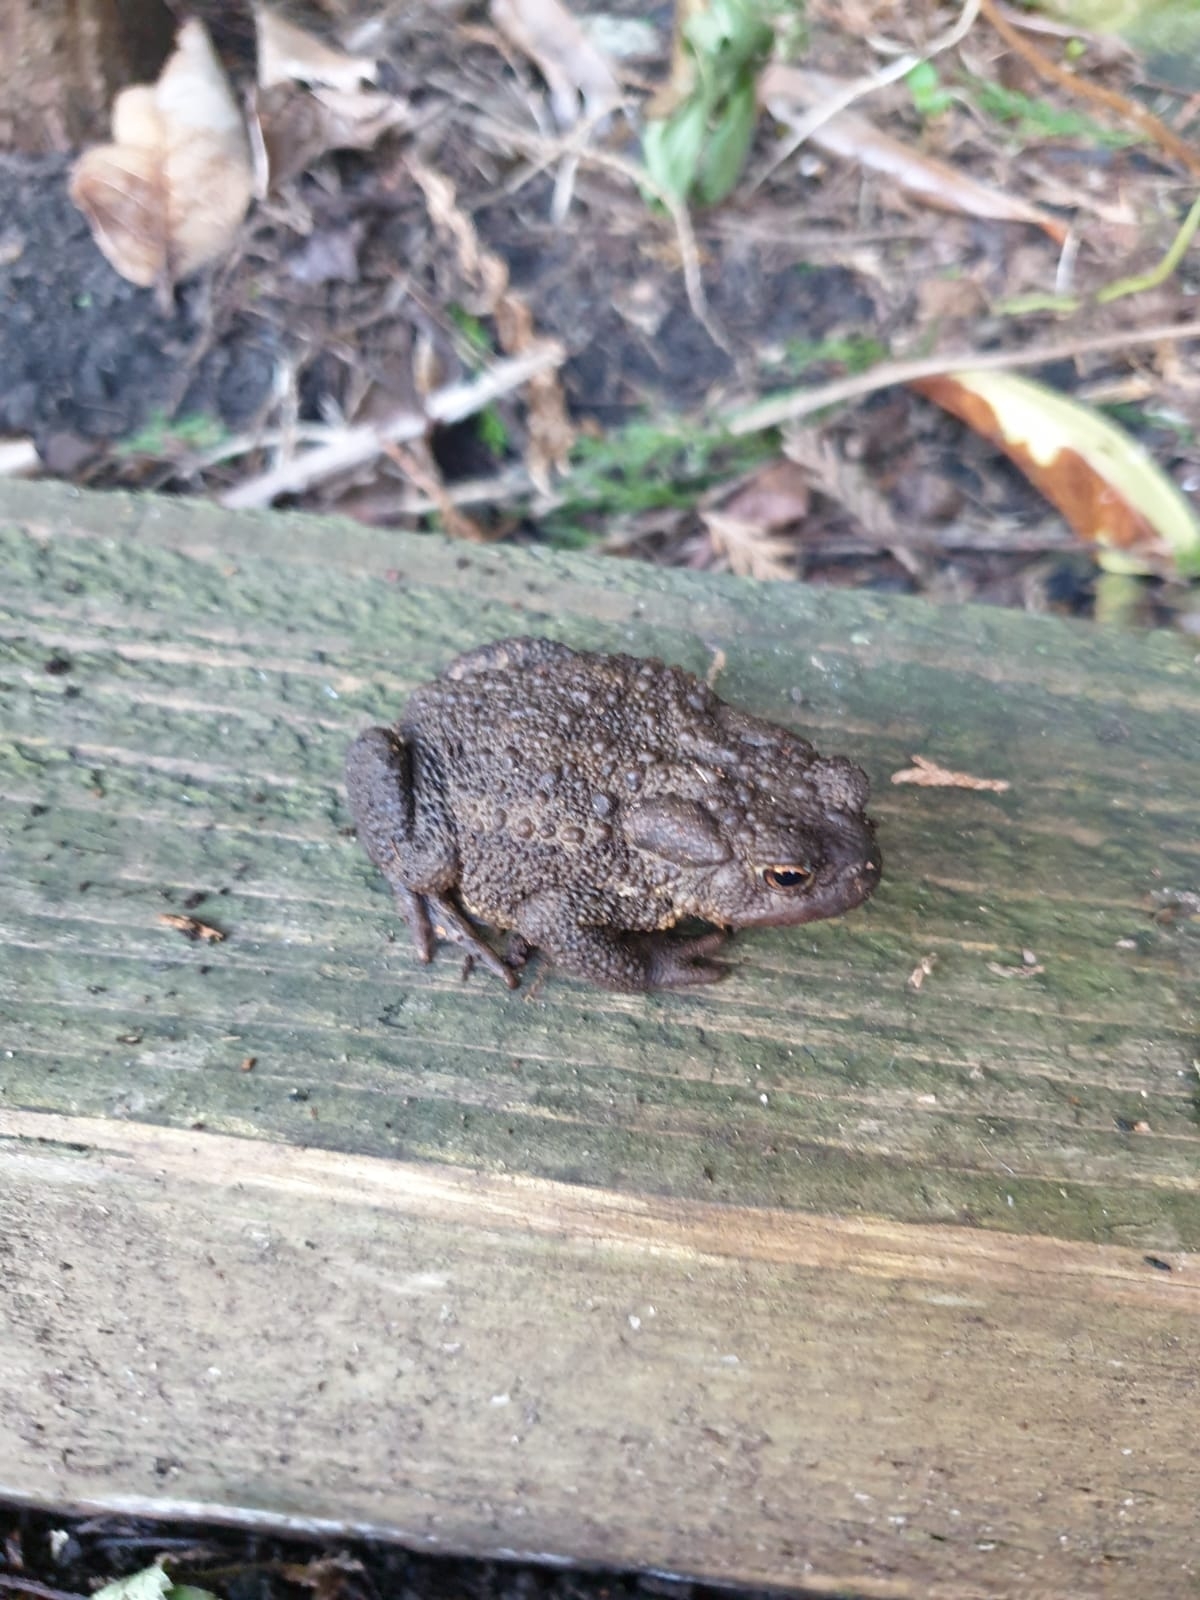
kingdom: Animalia
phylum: Chordata
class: Amphibia
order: Anura
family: Bufonidae
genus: Bufo
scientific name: Bufo bufo
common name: Common toad
